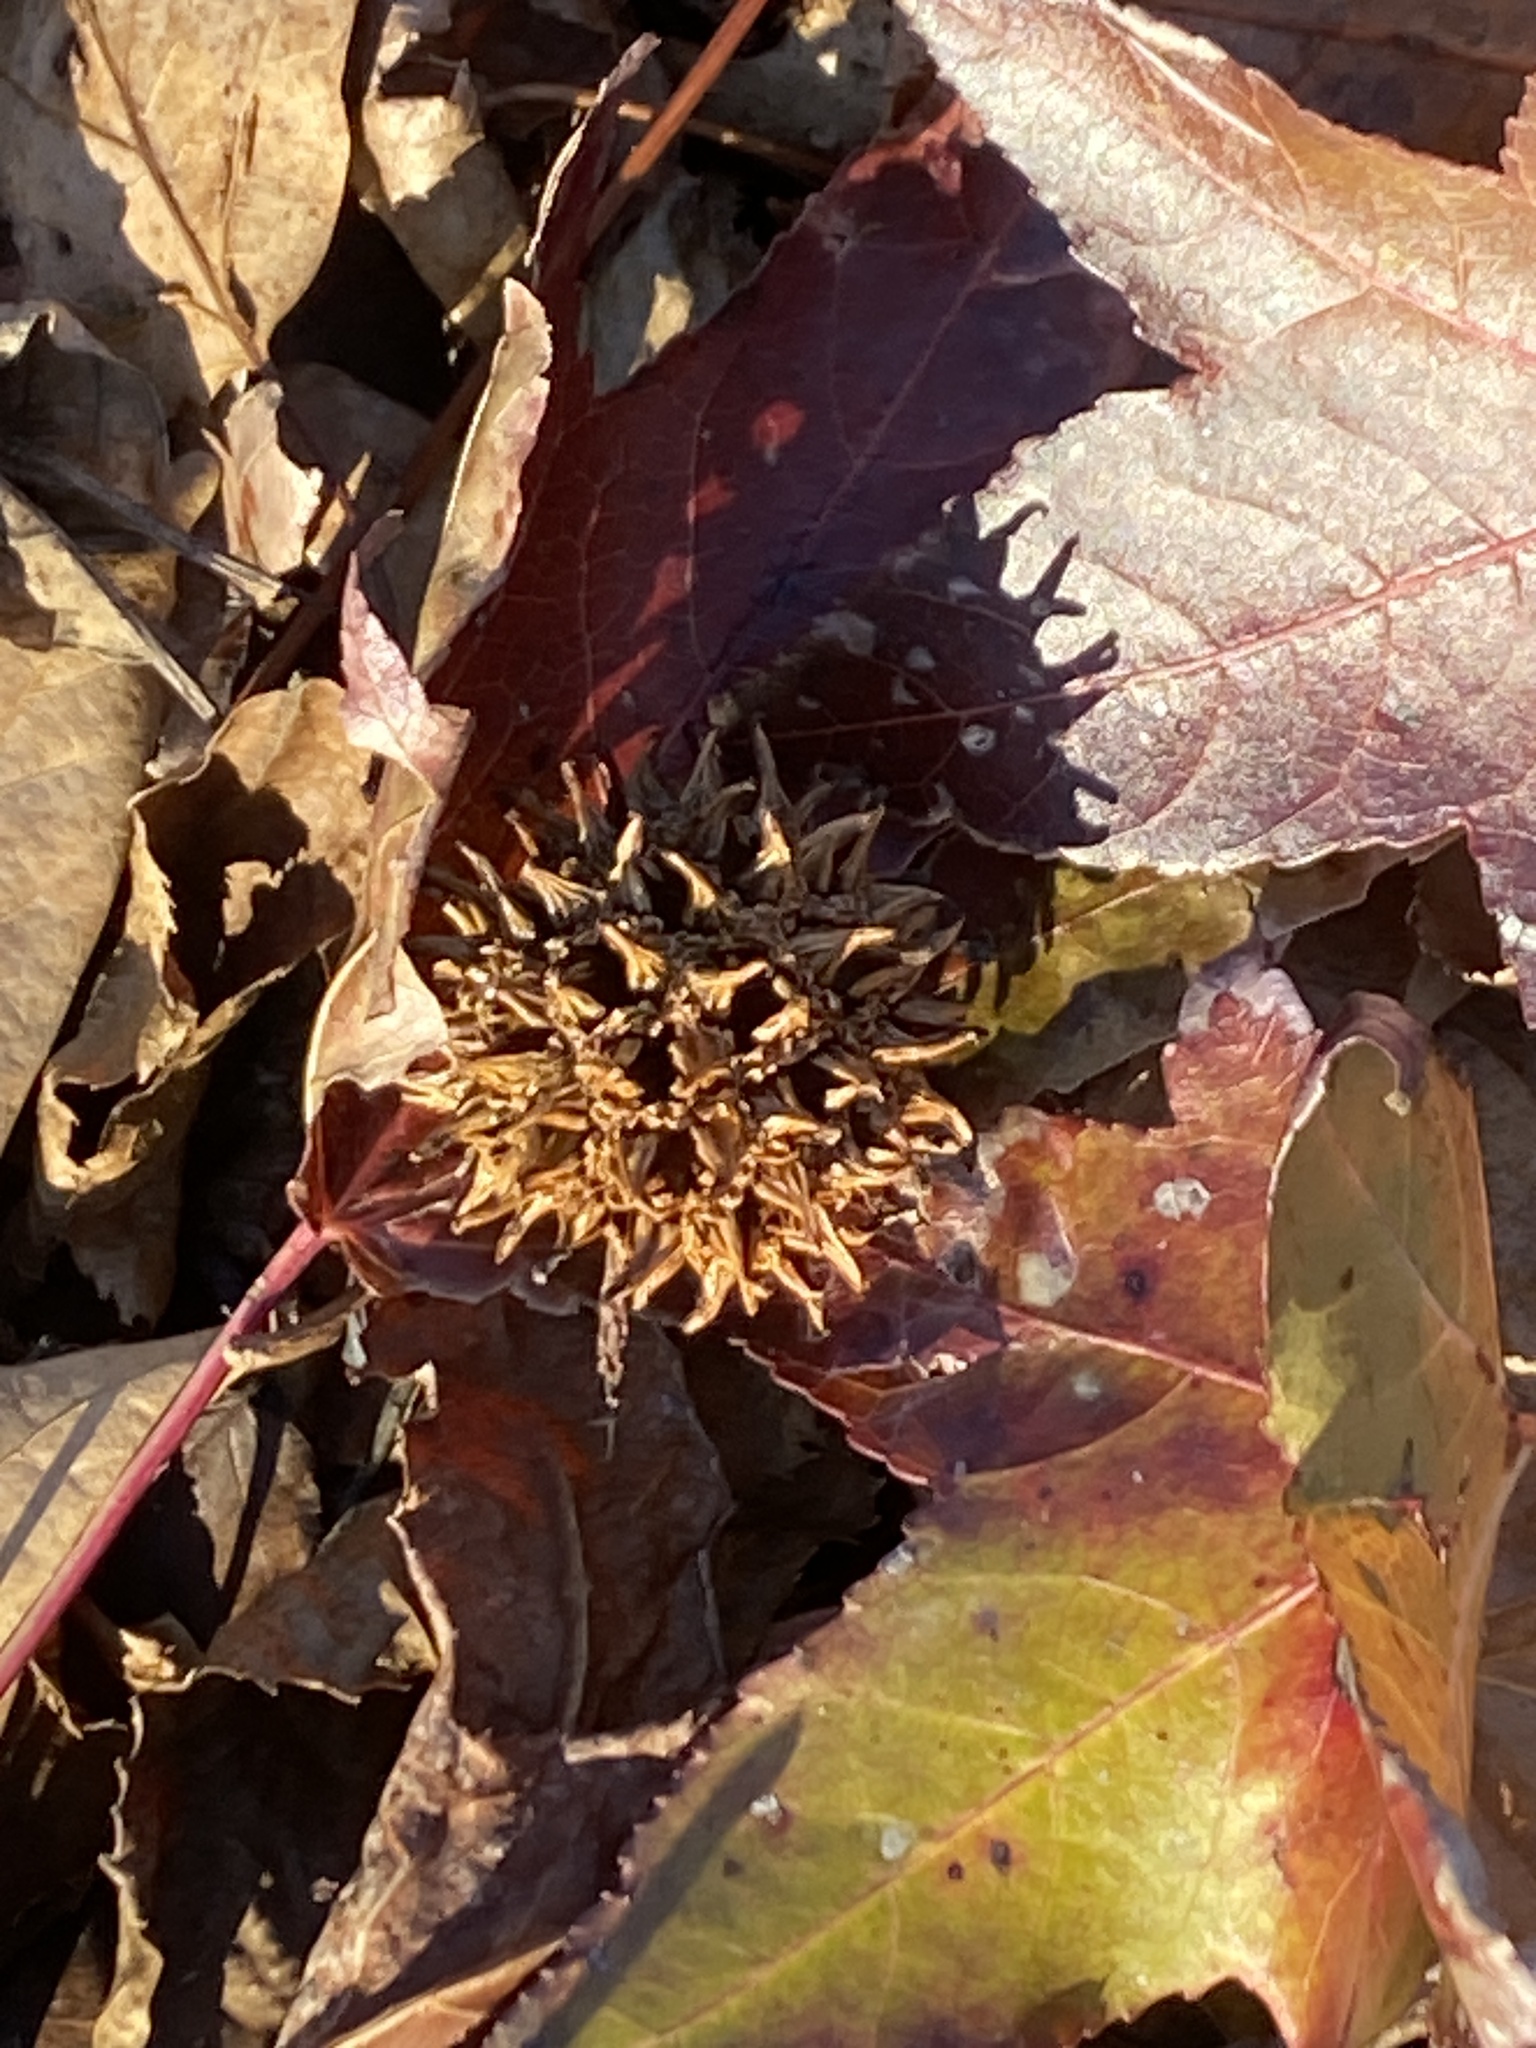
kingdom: Plantae
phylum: Tracheophyta
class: Magnoliopsida
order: Saxifragales
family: Altingiaceae
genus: Liquidambar
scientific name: Liquidambar styraciflua
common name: Sweet gum
